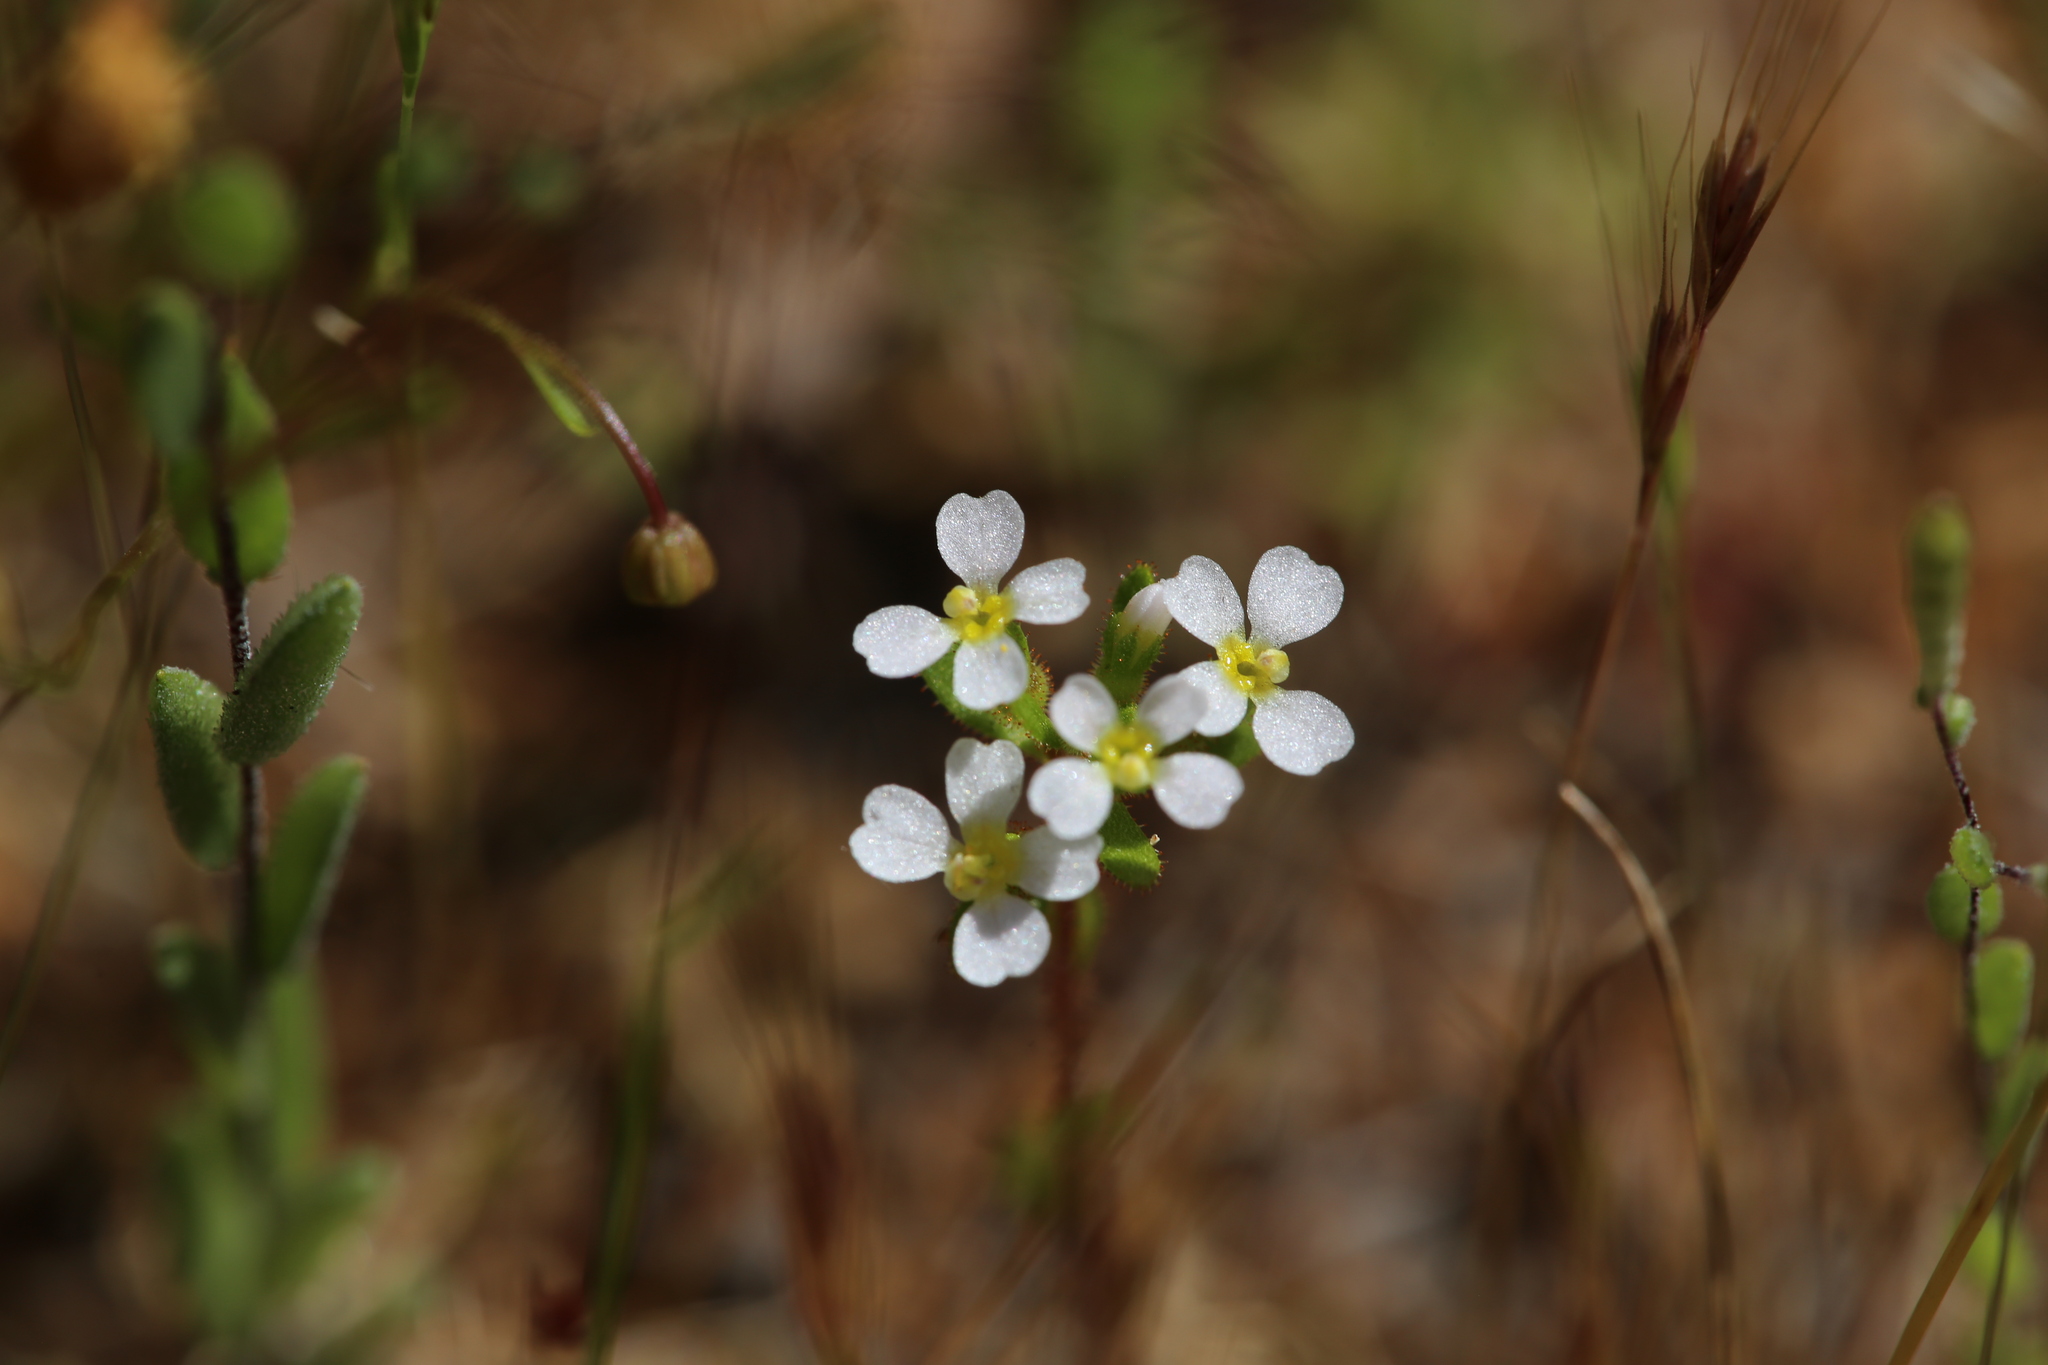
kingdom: Plantae
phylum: Tracheophyta
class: Magnoliopsida
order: Asterales
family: Stylidiaceae
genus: Levenhookia
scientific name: Levenhookia dubia
